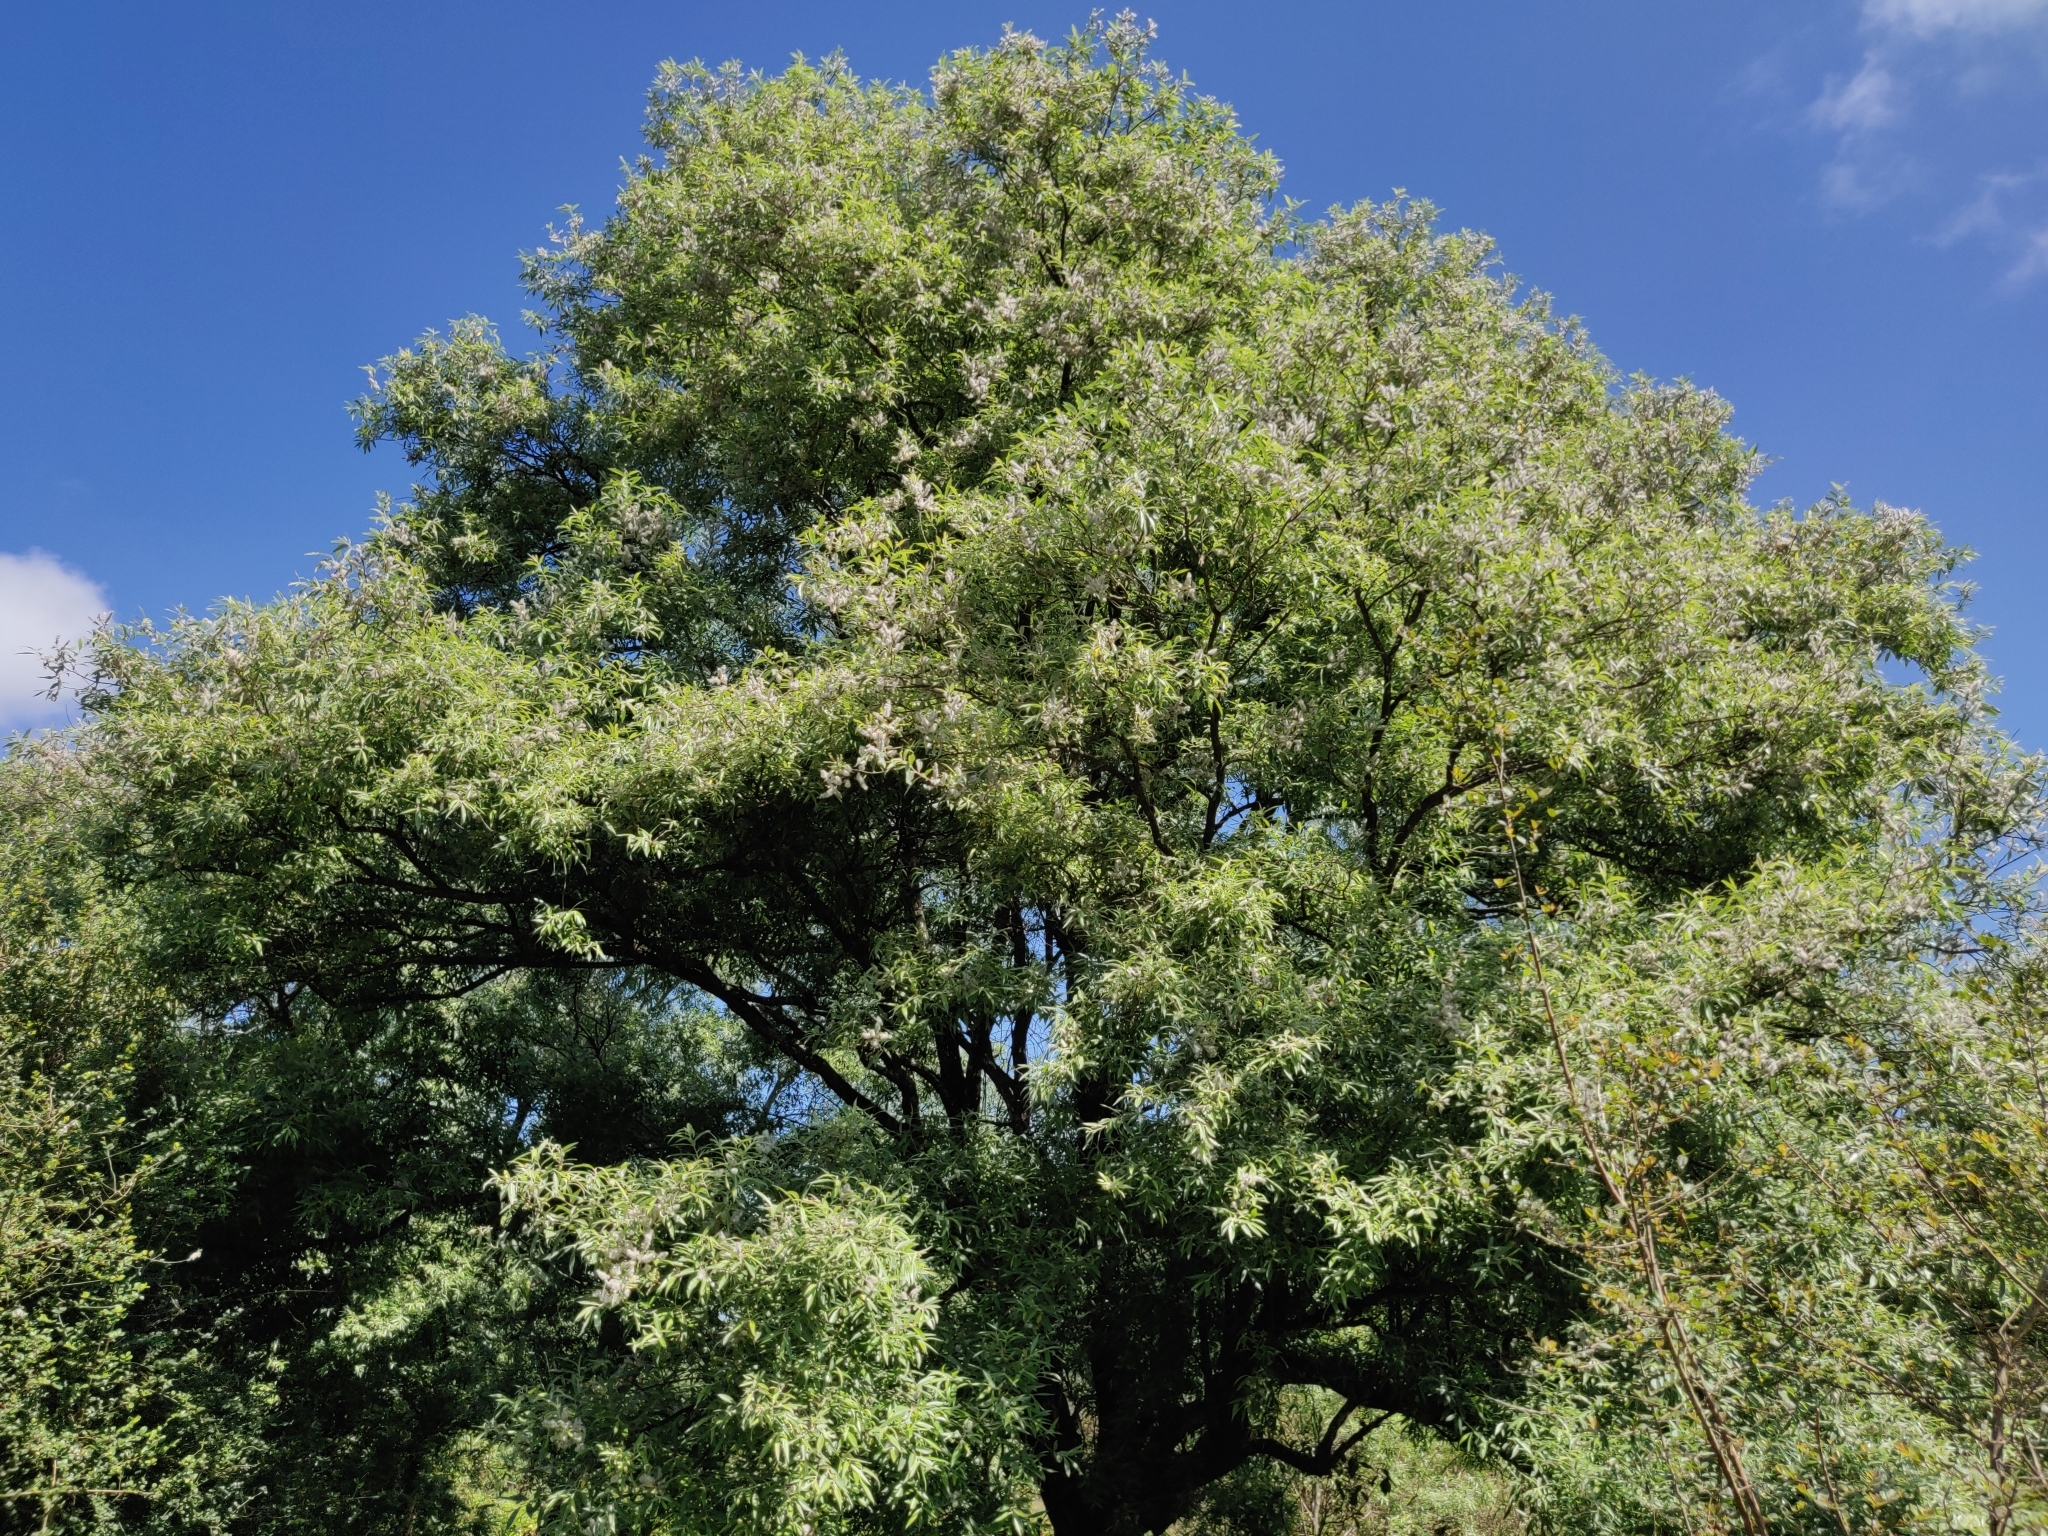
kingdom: Plantae
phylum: Tracheophyta
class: Magnoliopsida
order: Malpighiales
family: Salicaceae
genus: Salix
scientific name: Salix tetrasperma
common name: Indian willow
